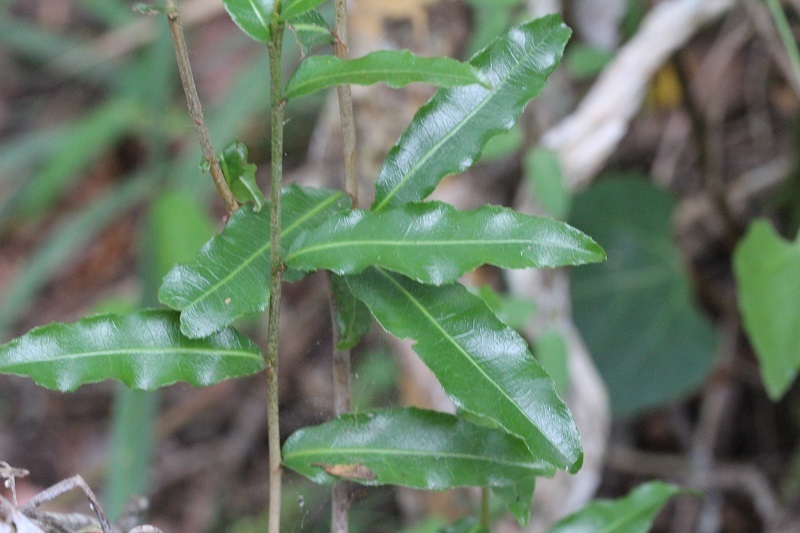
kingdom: Plantae
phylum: Tracheophyta
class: Magnoliopsida
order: Malpighiales
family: Ochnaceae
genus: Ochna
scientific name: Ochna serrulata
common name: Mickey mouse plant
